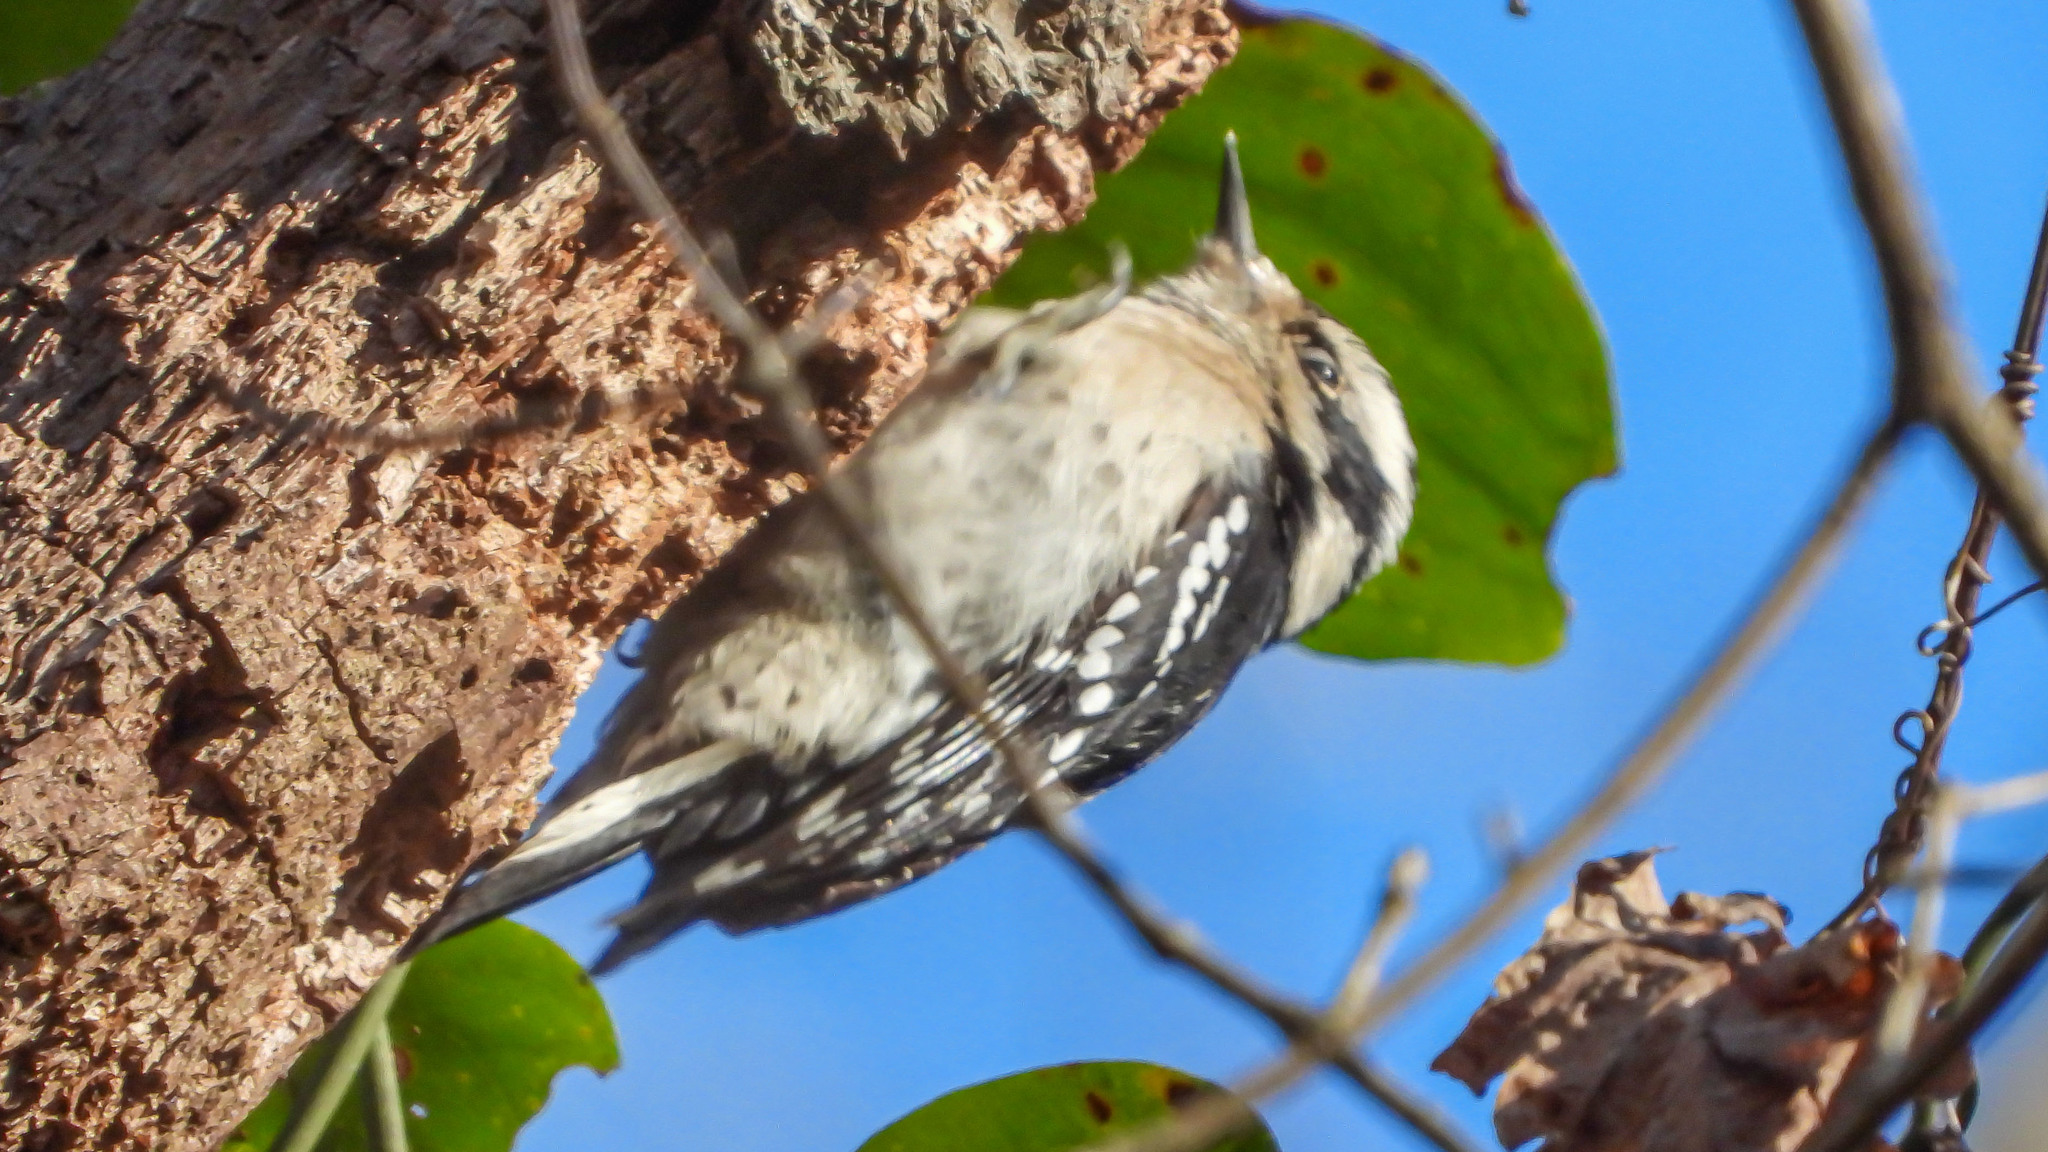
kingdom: Animalia
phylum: Chordata
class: Aves
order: Piciformes
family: Picidae
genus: Dryobates
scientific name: Dryobates pubescens
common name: Downy woodpecker
